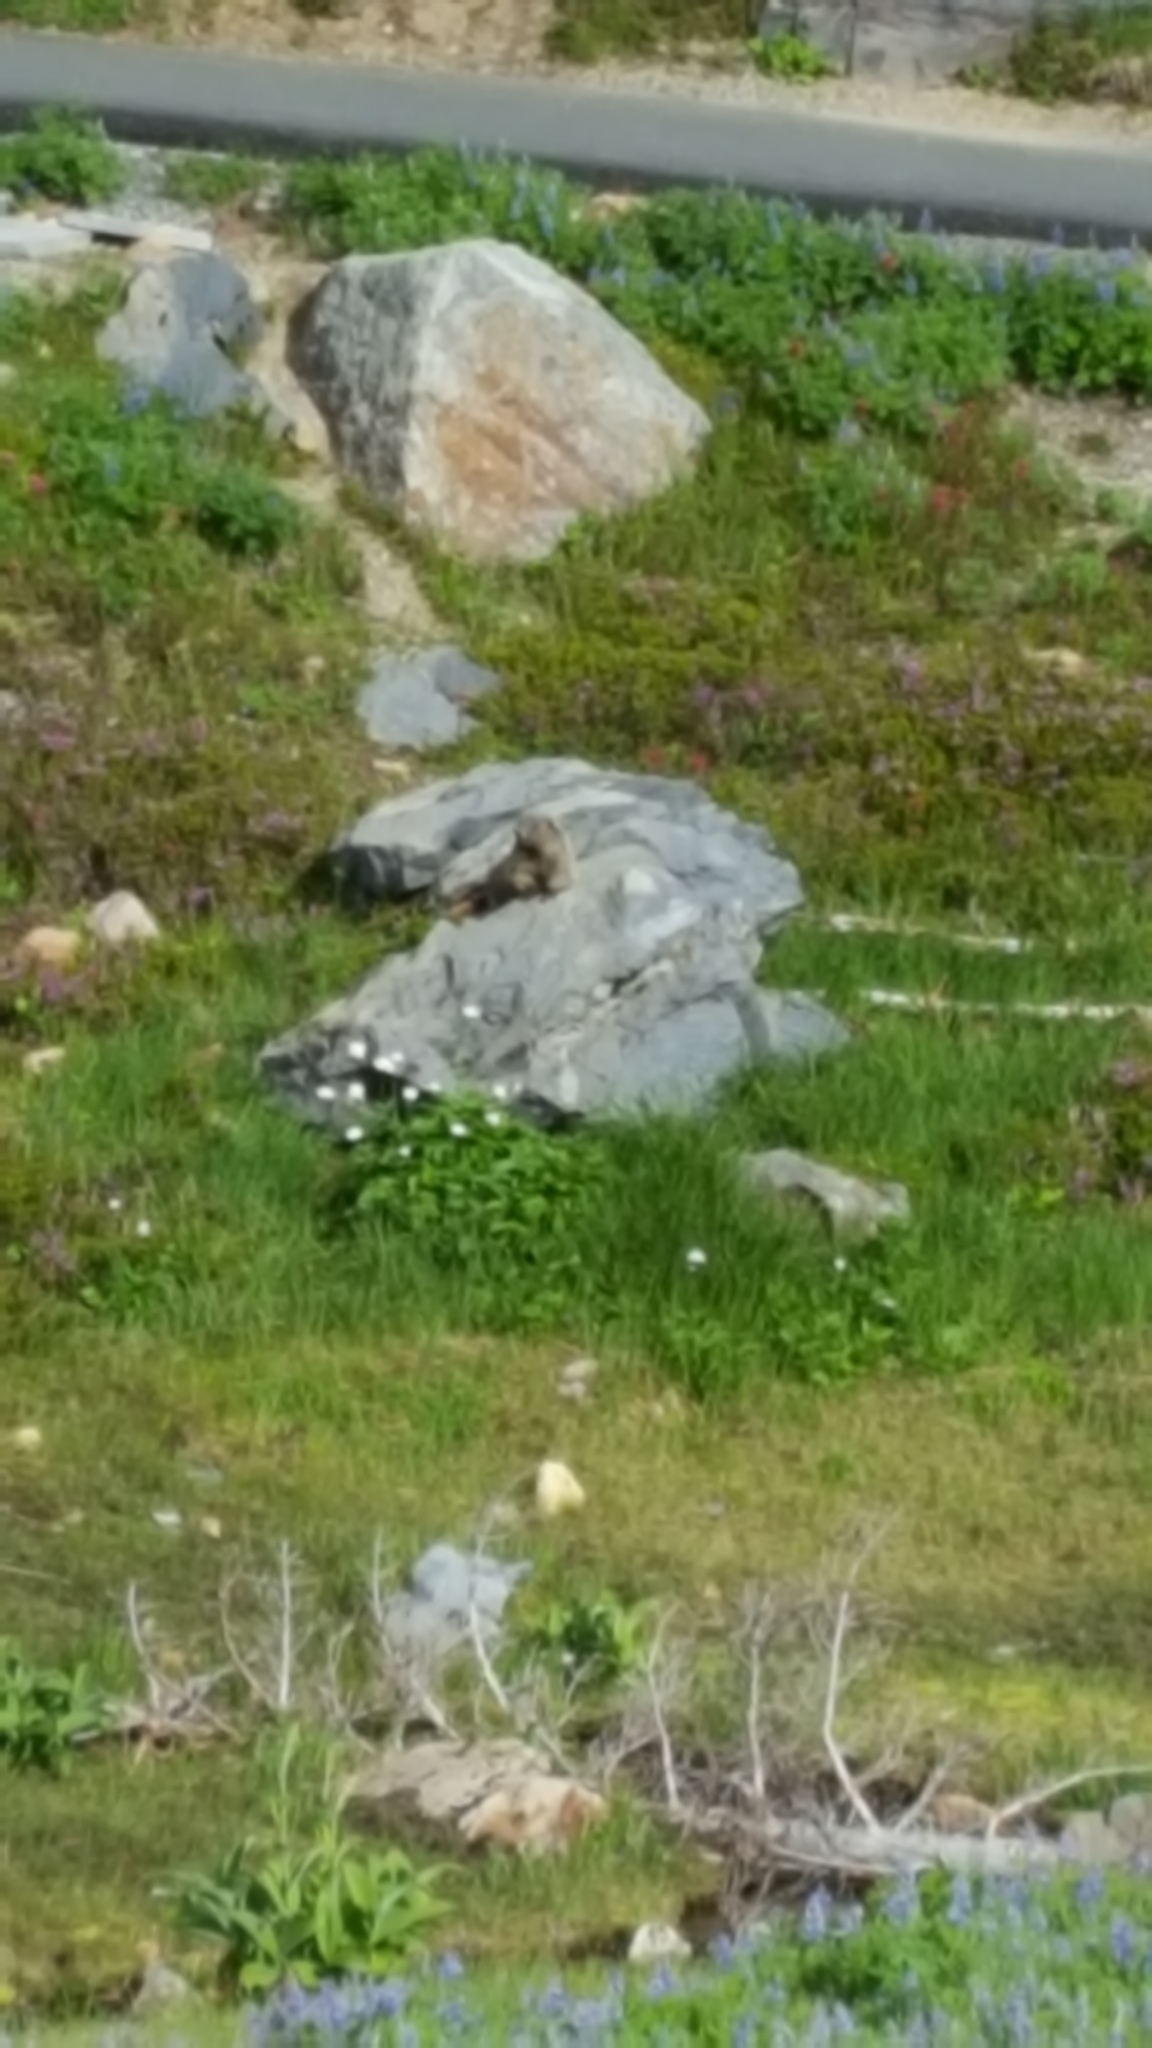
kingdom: Animalia
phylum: Chordata
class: Mammalia
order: Rodentia
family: Sciuridae
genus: Marmota
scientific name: Marmota caligata
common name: Hoary marmot
